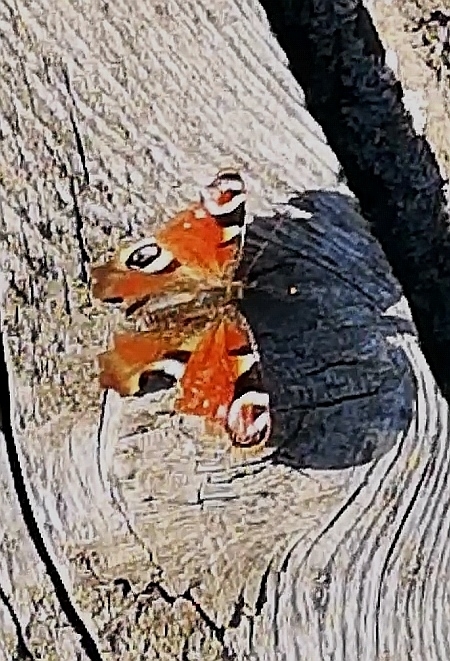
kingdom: Animalia
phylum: Arthropoda
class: Insecta
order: Lepidoptera
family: Nymphalidae
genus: Aglais
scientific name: Aglais io
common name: Peacock
